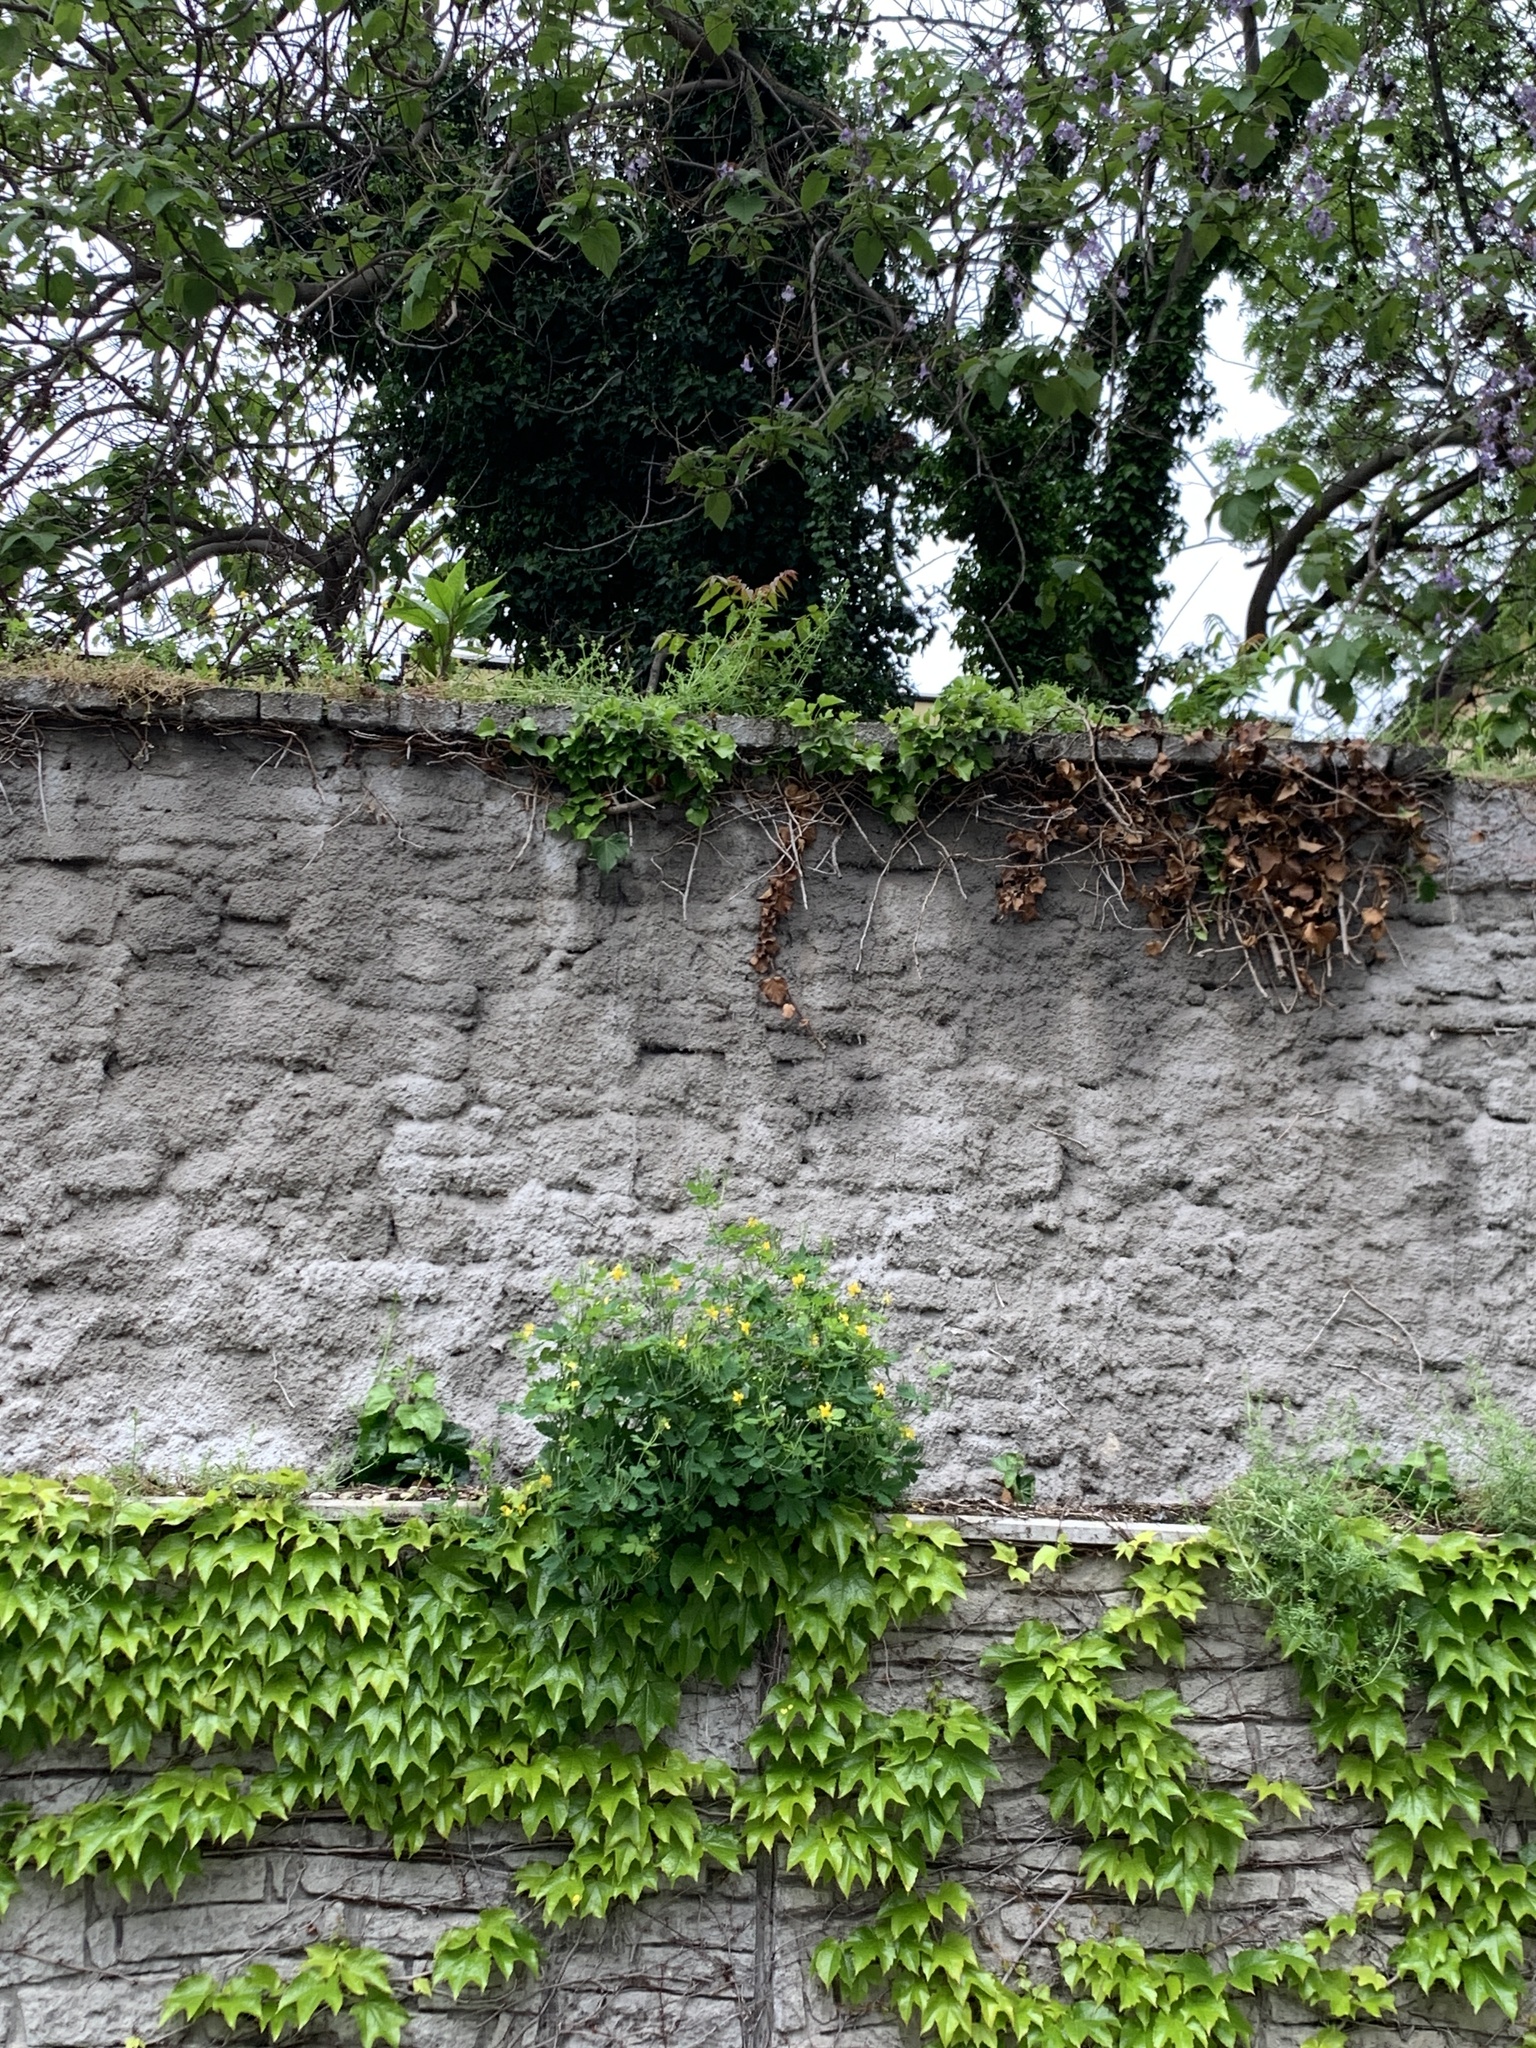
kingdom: Plantae
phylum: Tracheophyta
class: Magnoliopsida
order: Sapindales
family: Simaroubaceae
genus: Ailanthus
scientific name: Ailanthus altissima
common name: Tree-of-heaven
